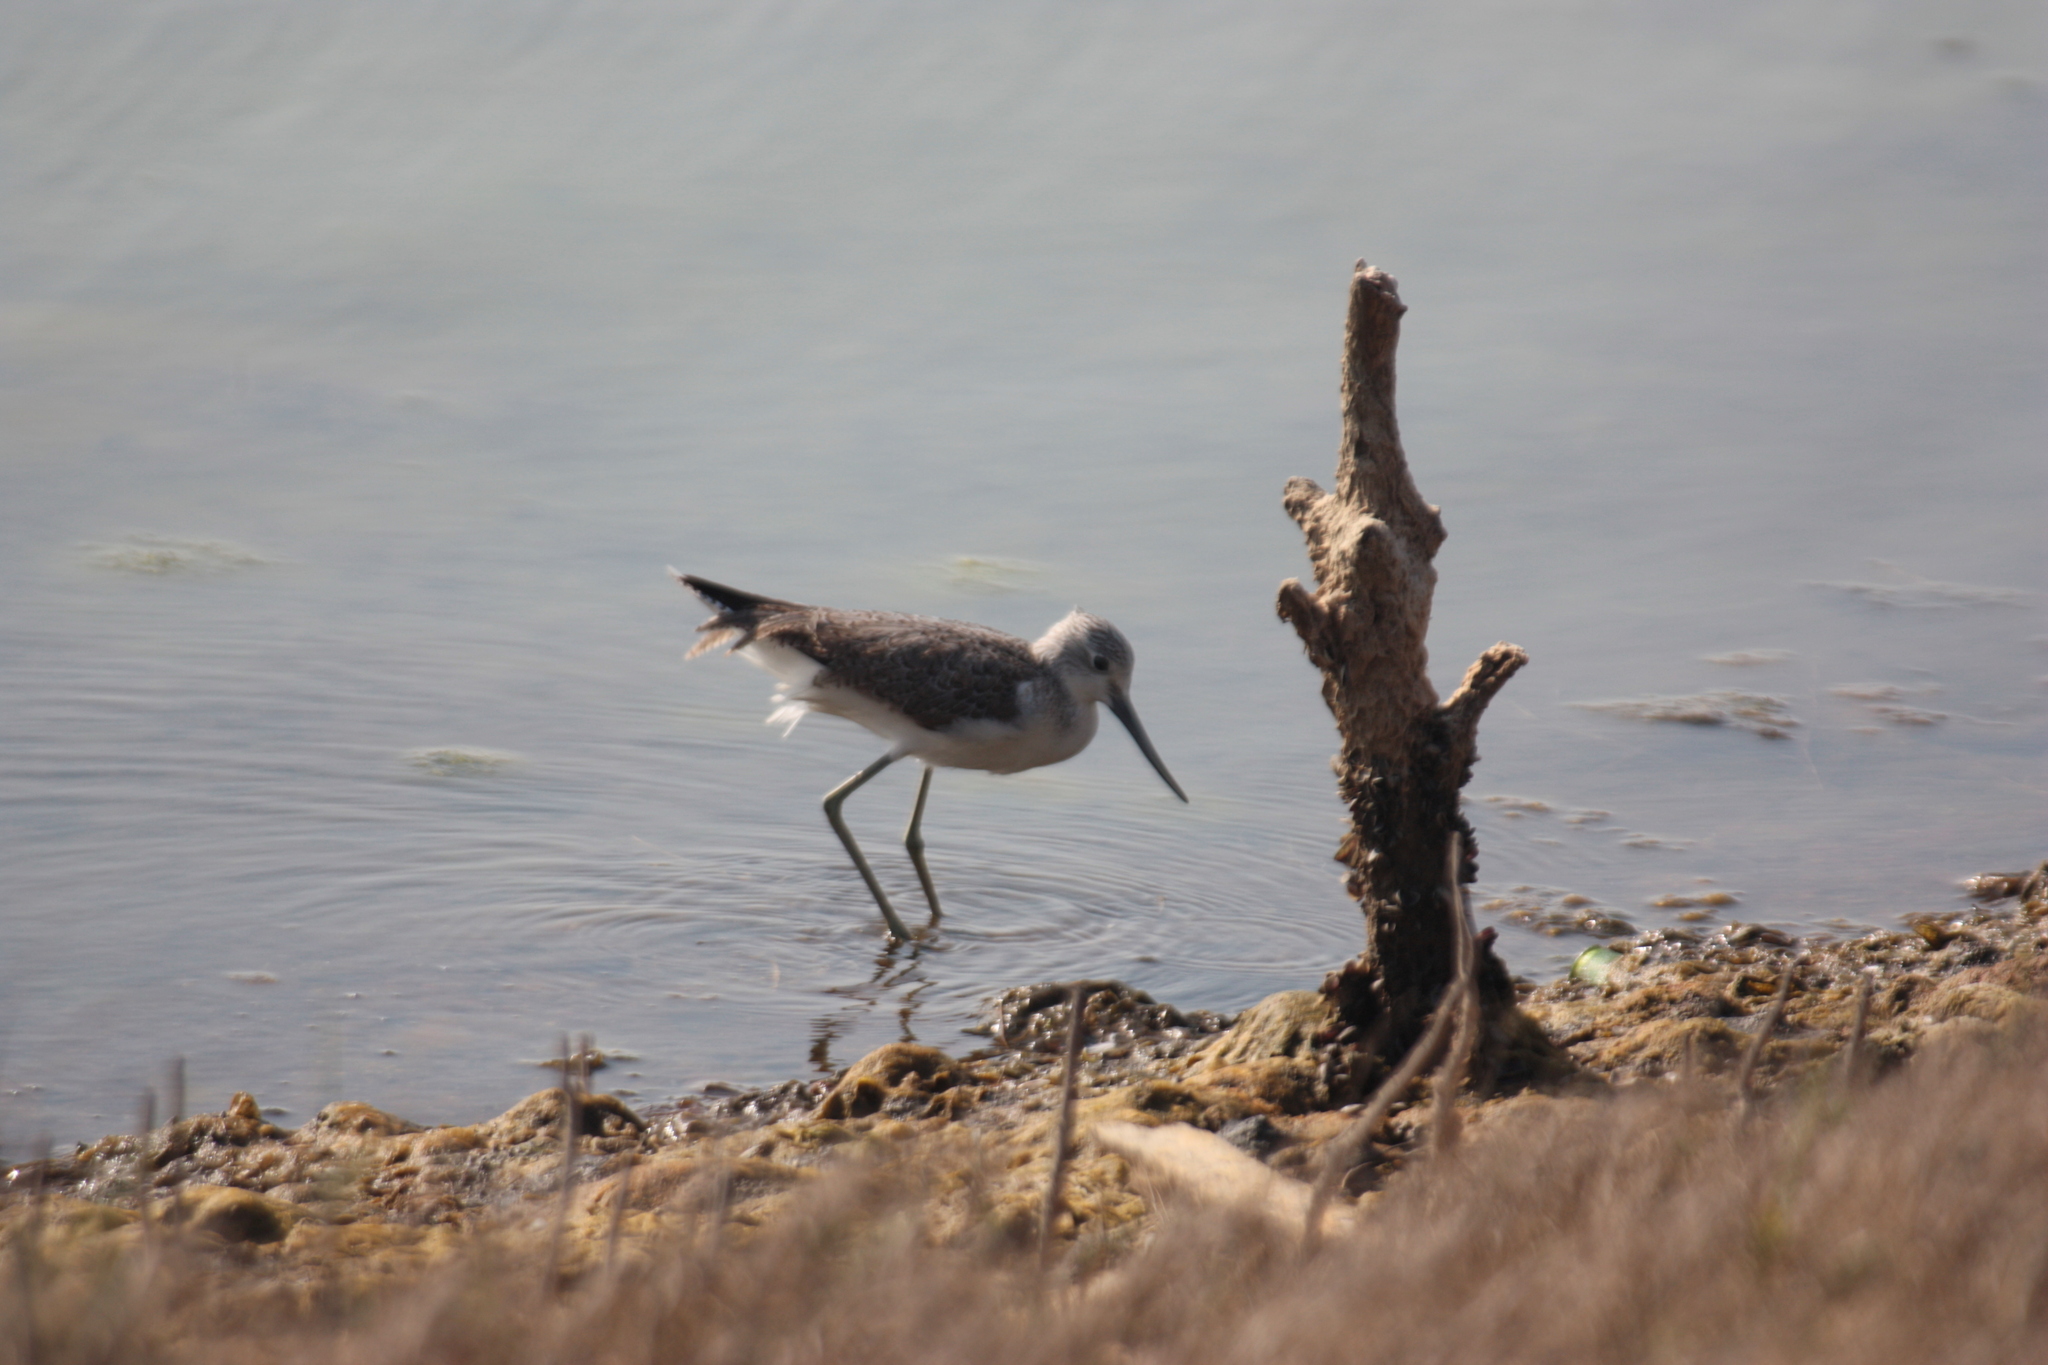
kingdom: Animalia
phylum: Chordata
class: Aves
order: Charadriiformes
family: Scolopacidae
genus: Tringa
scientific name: Tringa nebularia
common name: Common greenshank
